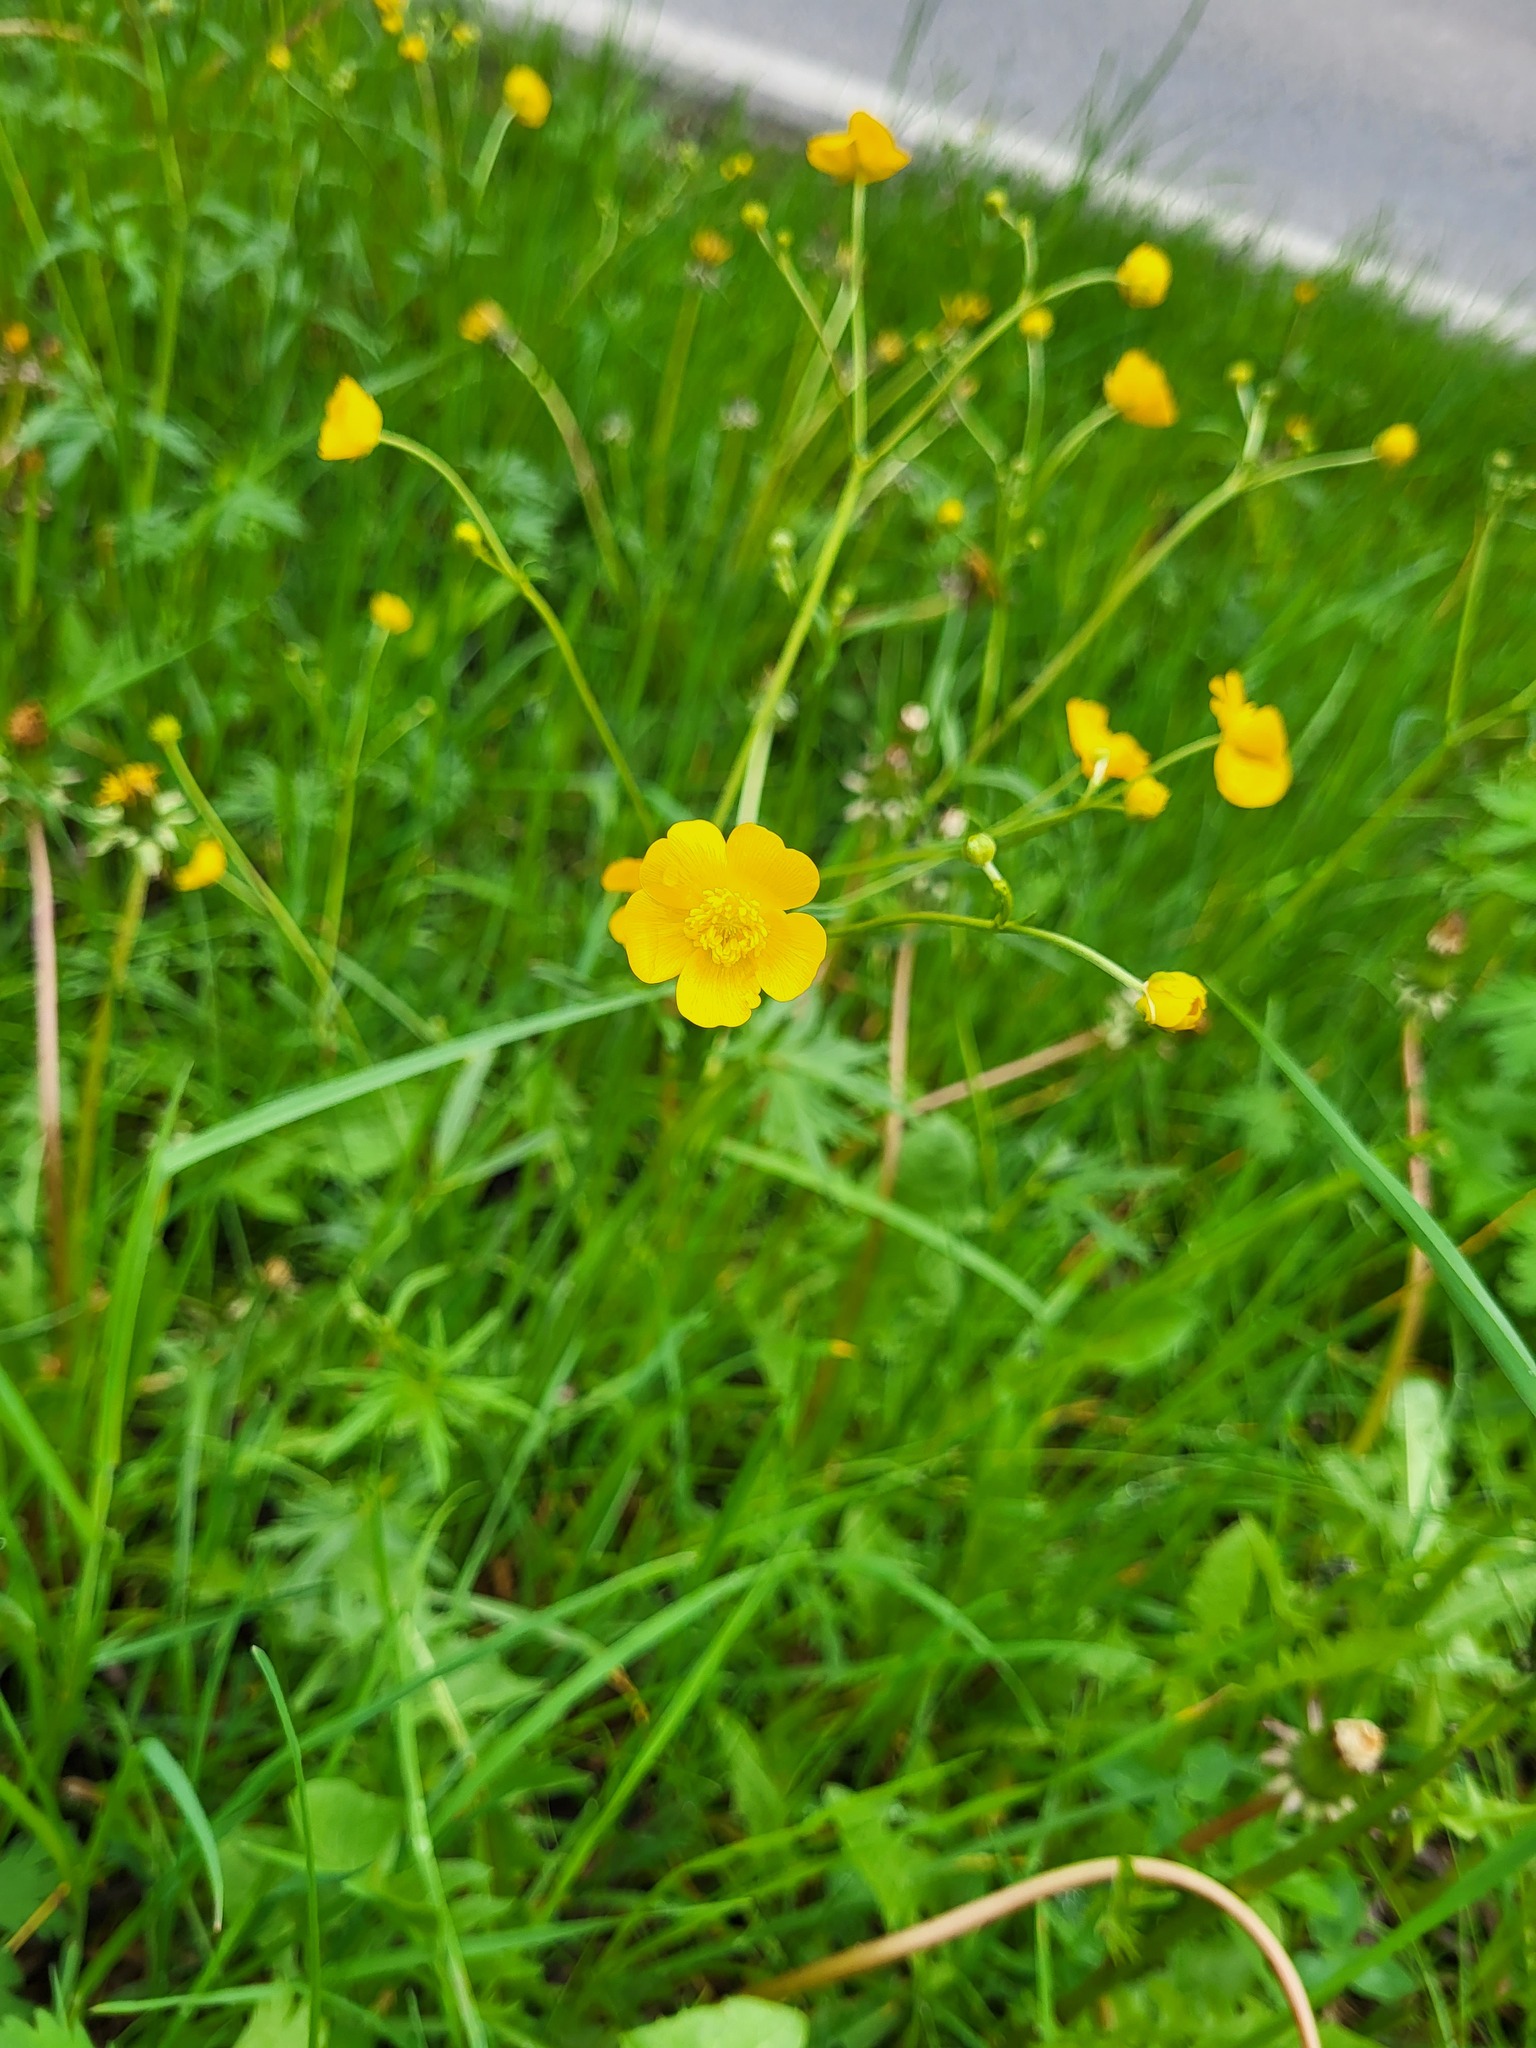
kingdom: Plantae
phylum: Tracheophyta
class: Magnoliopsida
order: Ranunculales
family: Ranunculaceae
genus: Ranunculus
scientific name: Ranunculus acris
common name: Meadow buttercup
